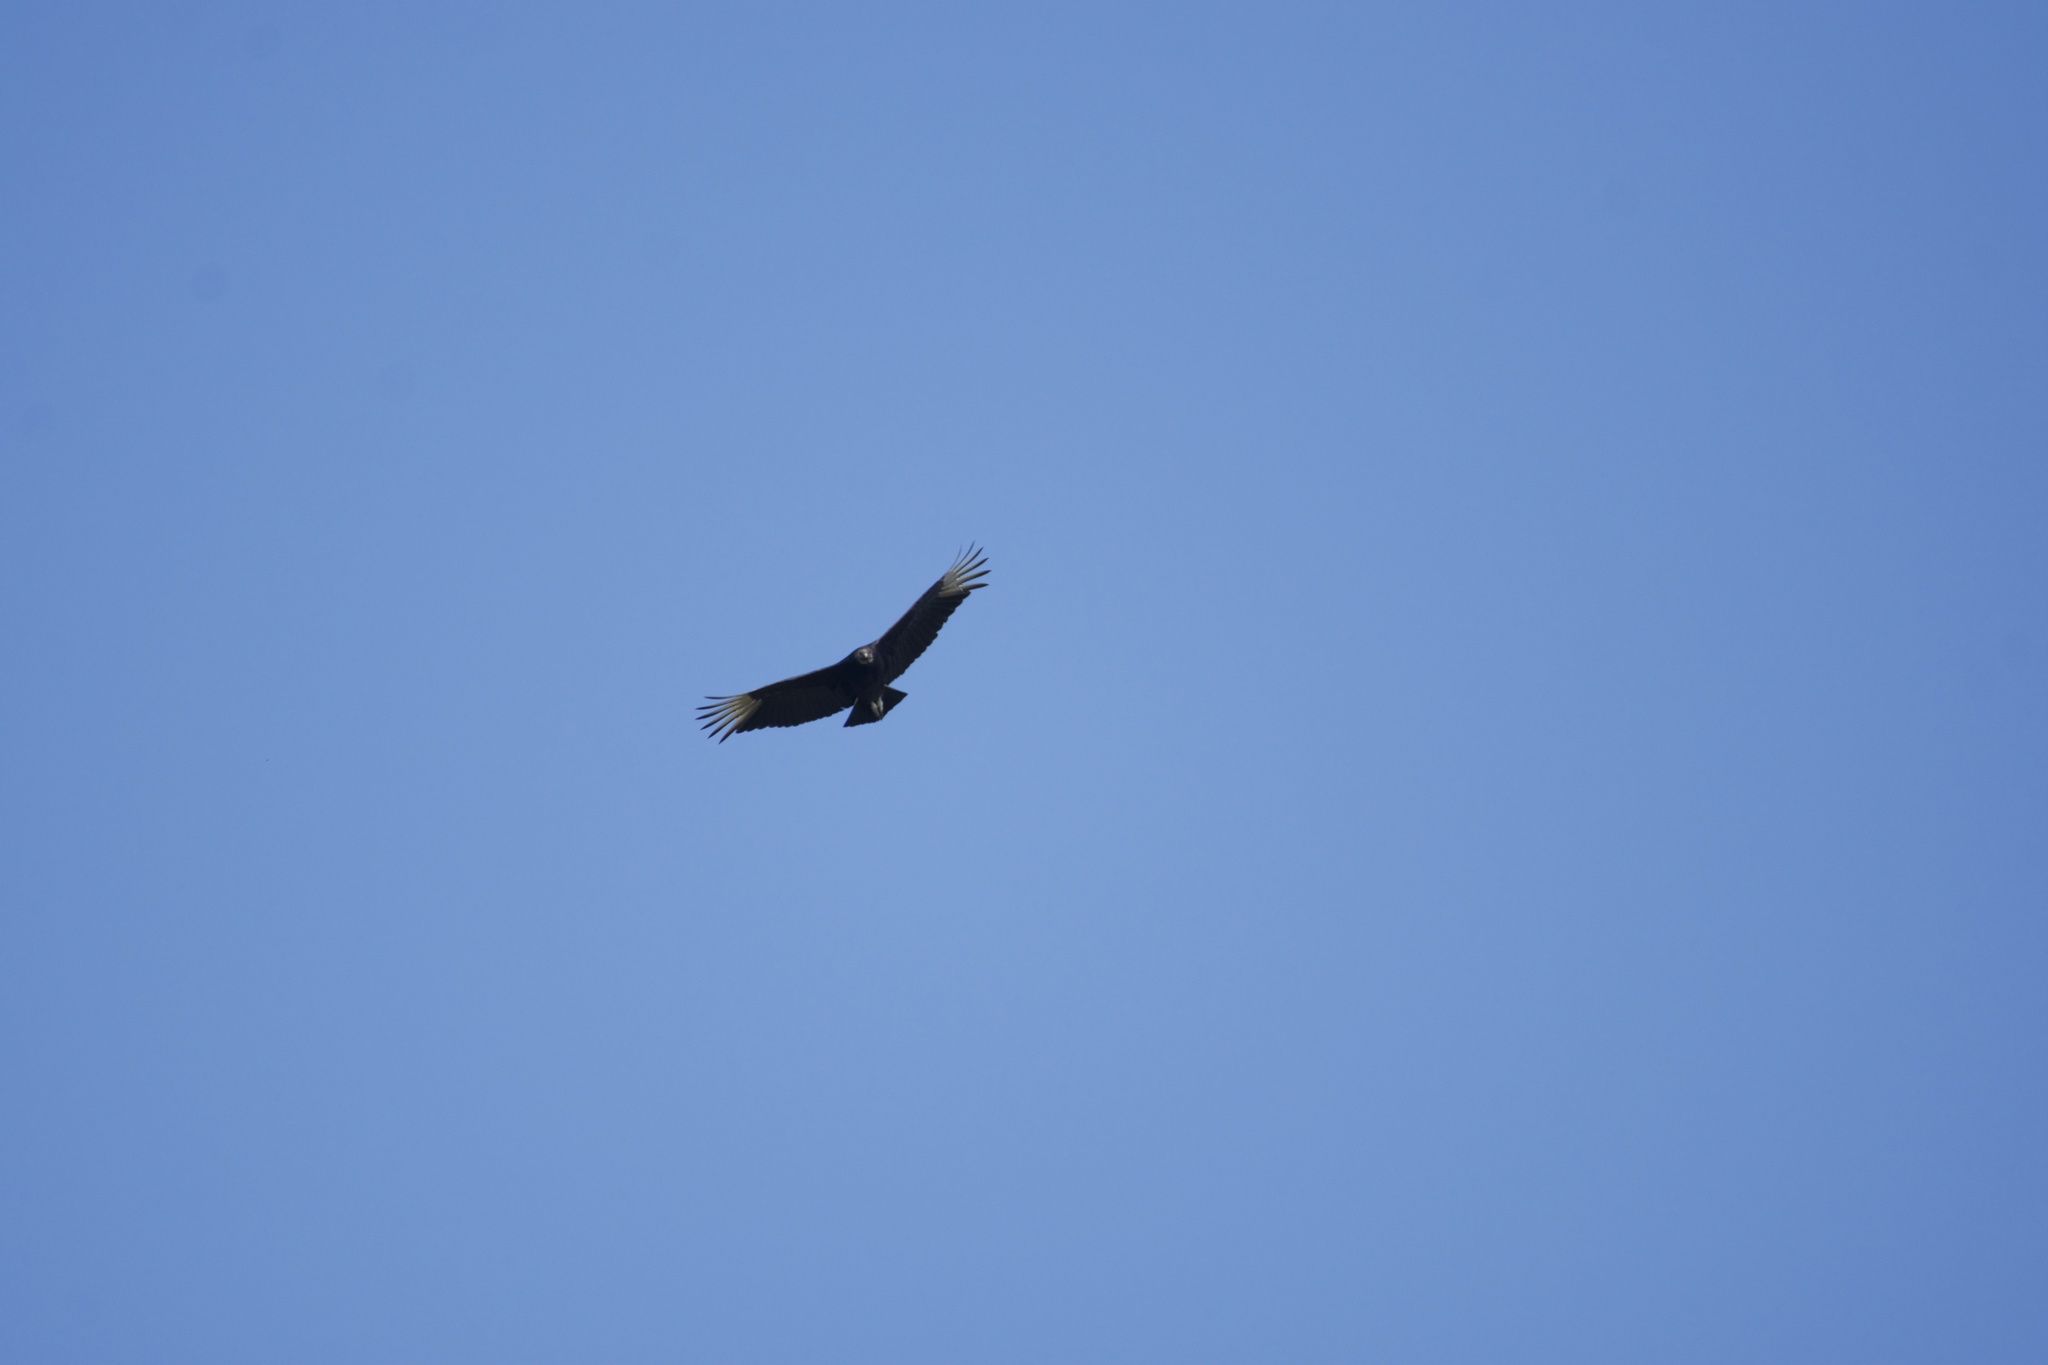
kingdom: Animalia
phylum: Chordata
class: Aves
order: Accipitriformes
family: Cathartidae
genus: Coragyps
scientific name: Coragyps atratus
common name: Black vulture
